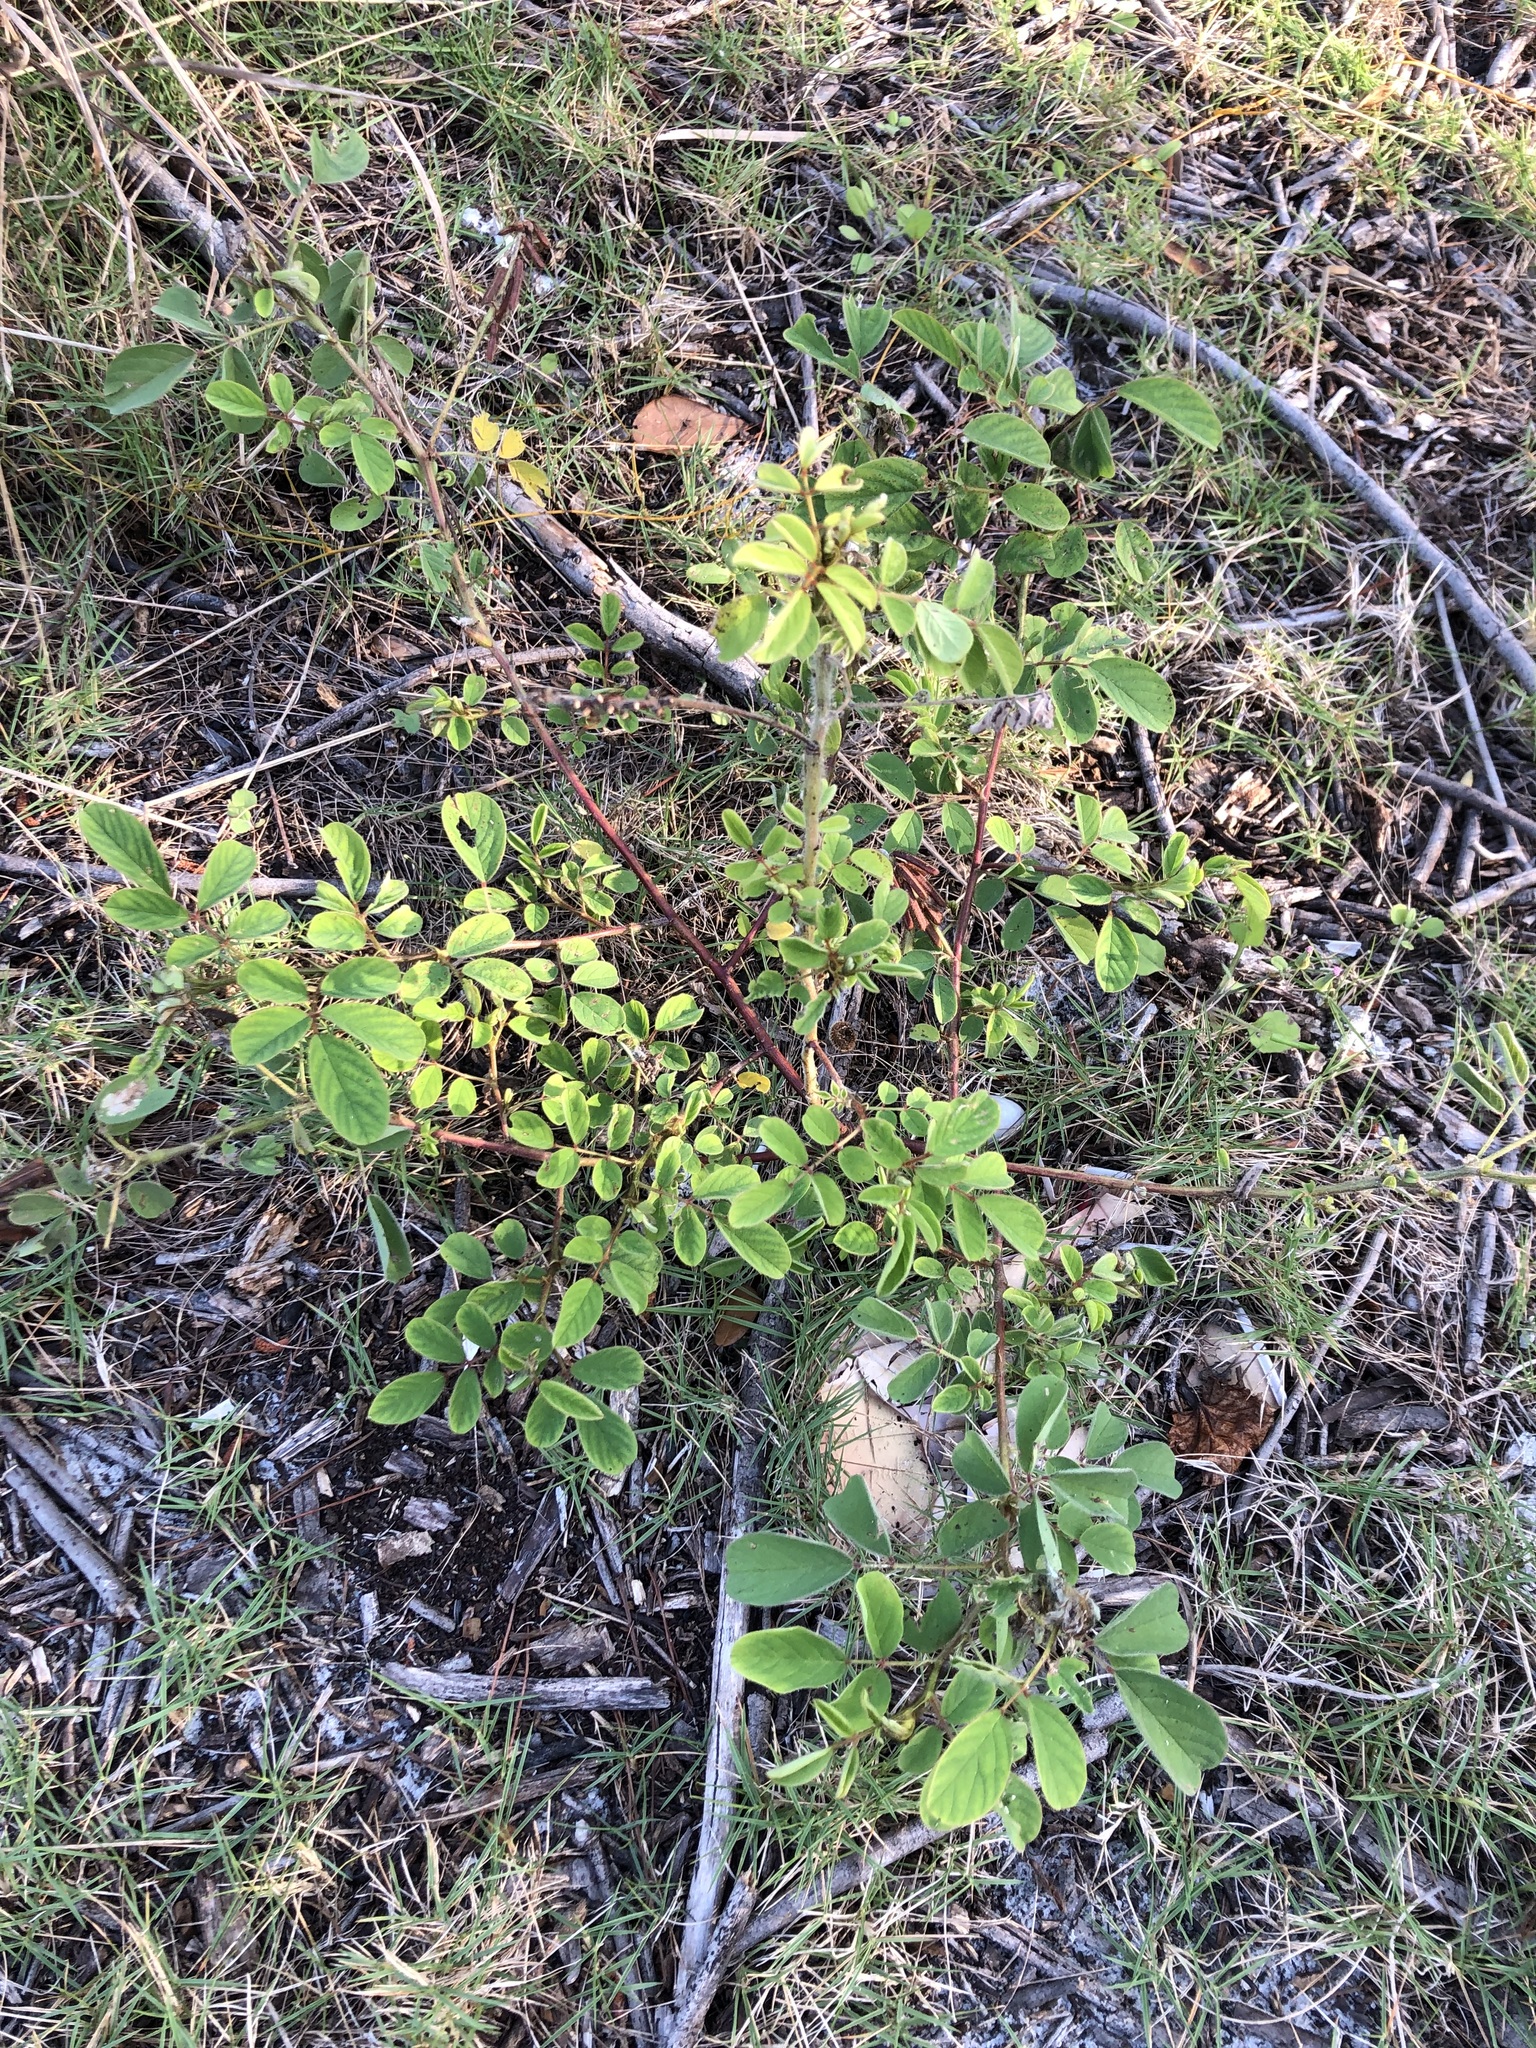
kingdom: Plantae
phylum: Tracheophyta
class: Magnoliopsida
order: Fabales
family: Fabaceae
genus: Indigofera
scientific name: Indigofera hirsuta
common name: Hairy indigo
